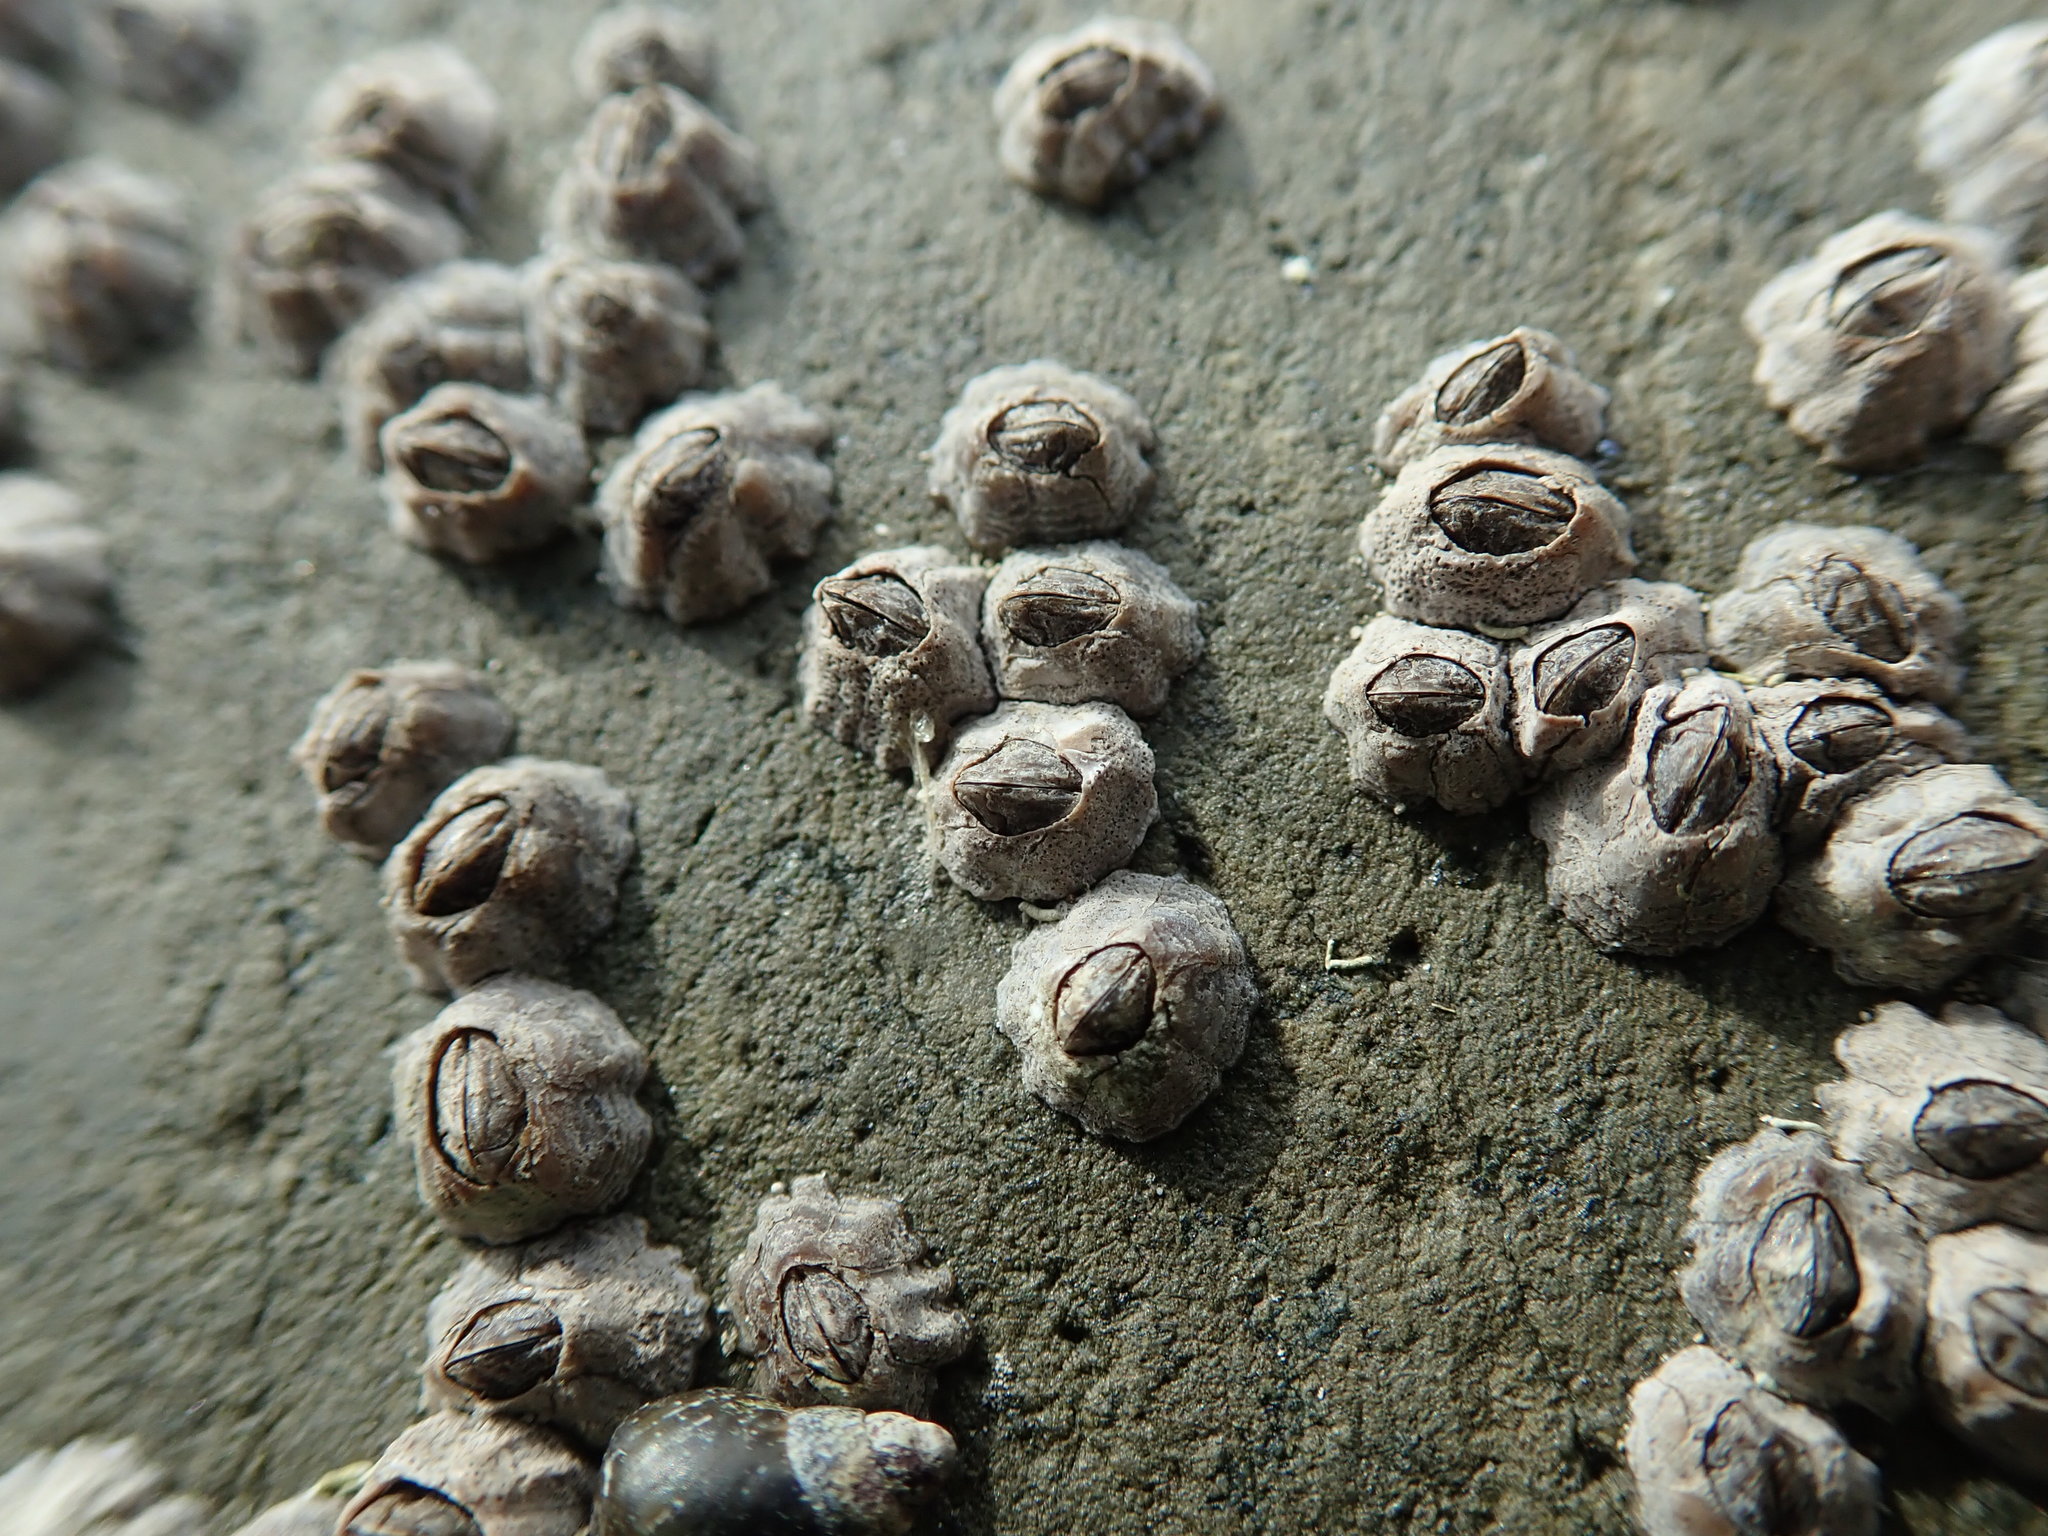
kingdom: Animalia
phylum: Arthropoda
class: Maxillopoda
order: Sessilia
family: Chthamalidae
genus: Chthamalus
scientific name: Chthamalus dalli
